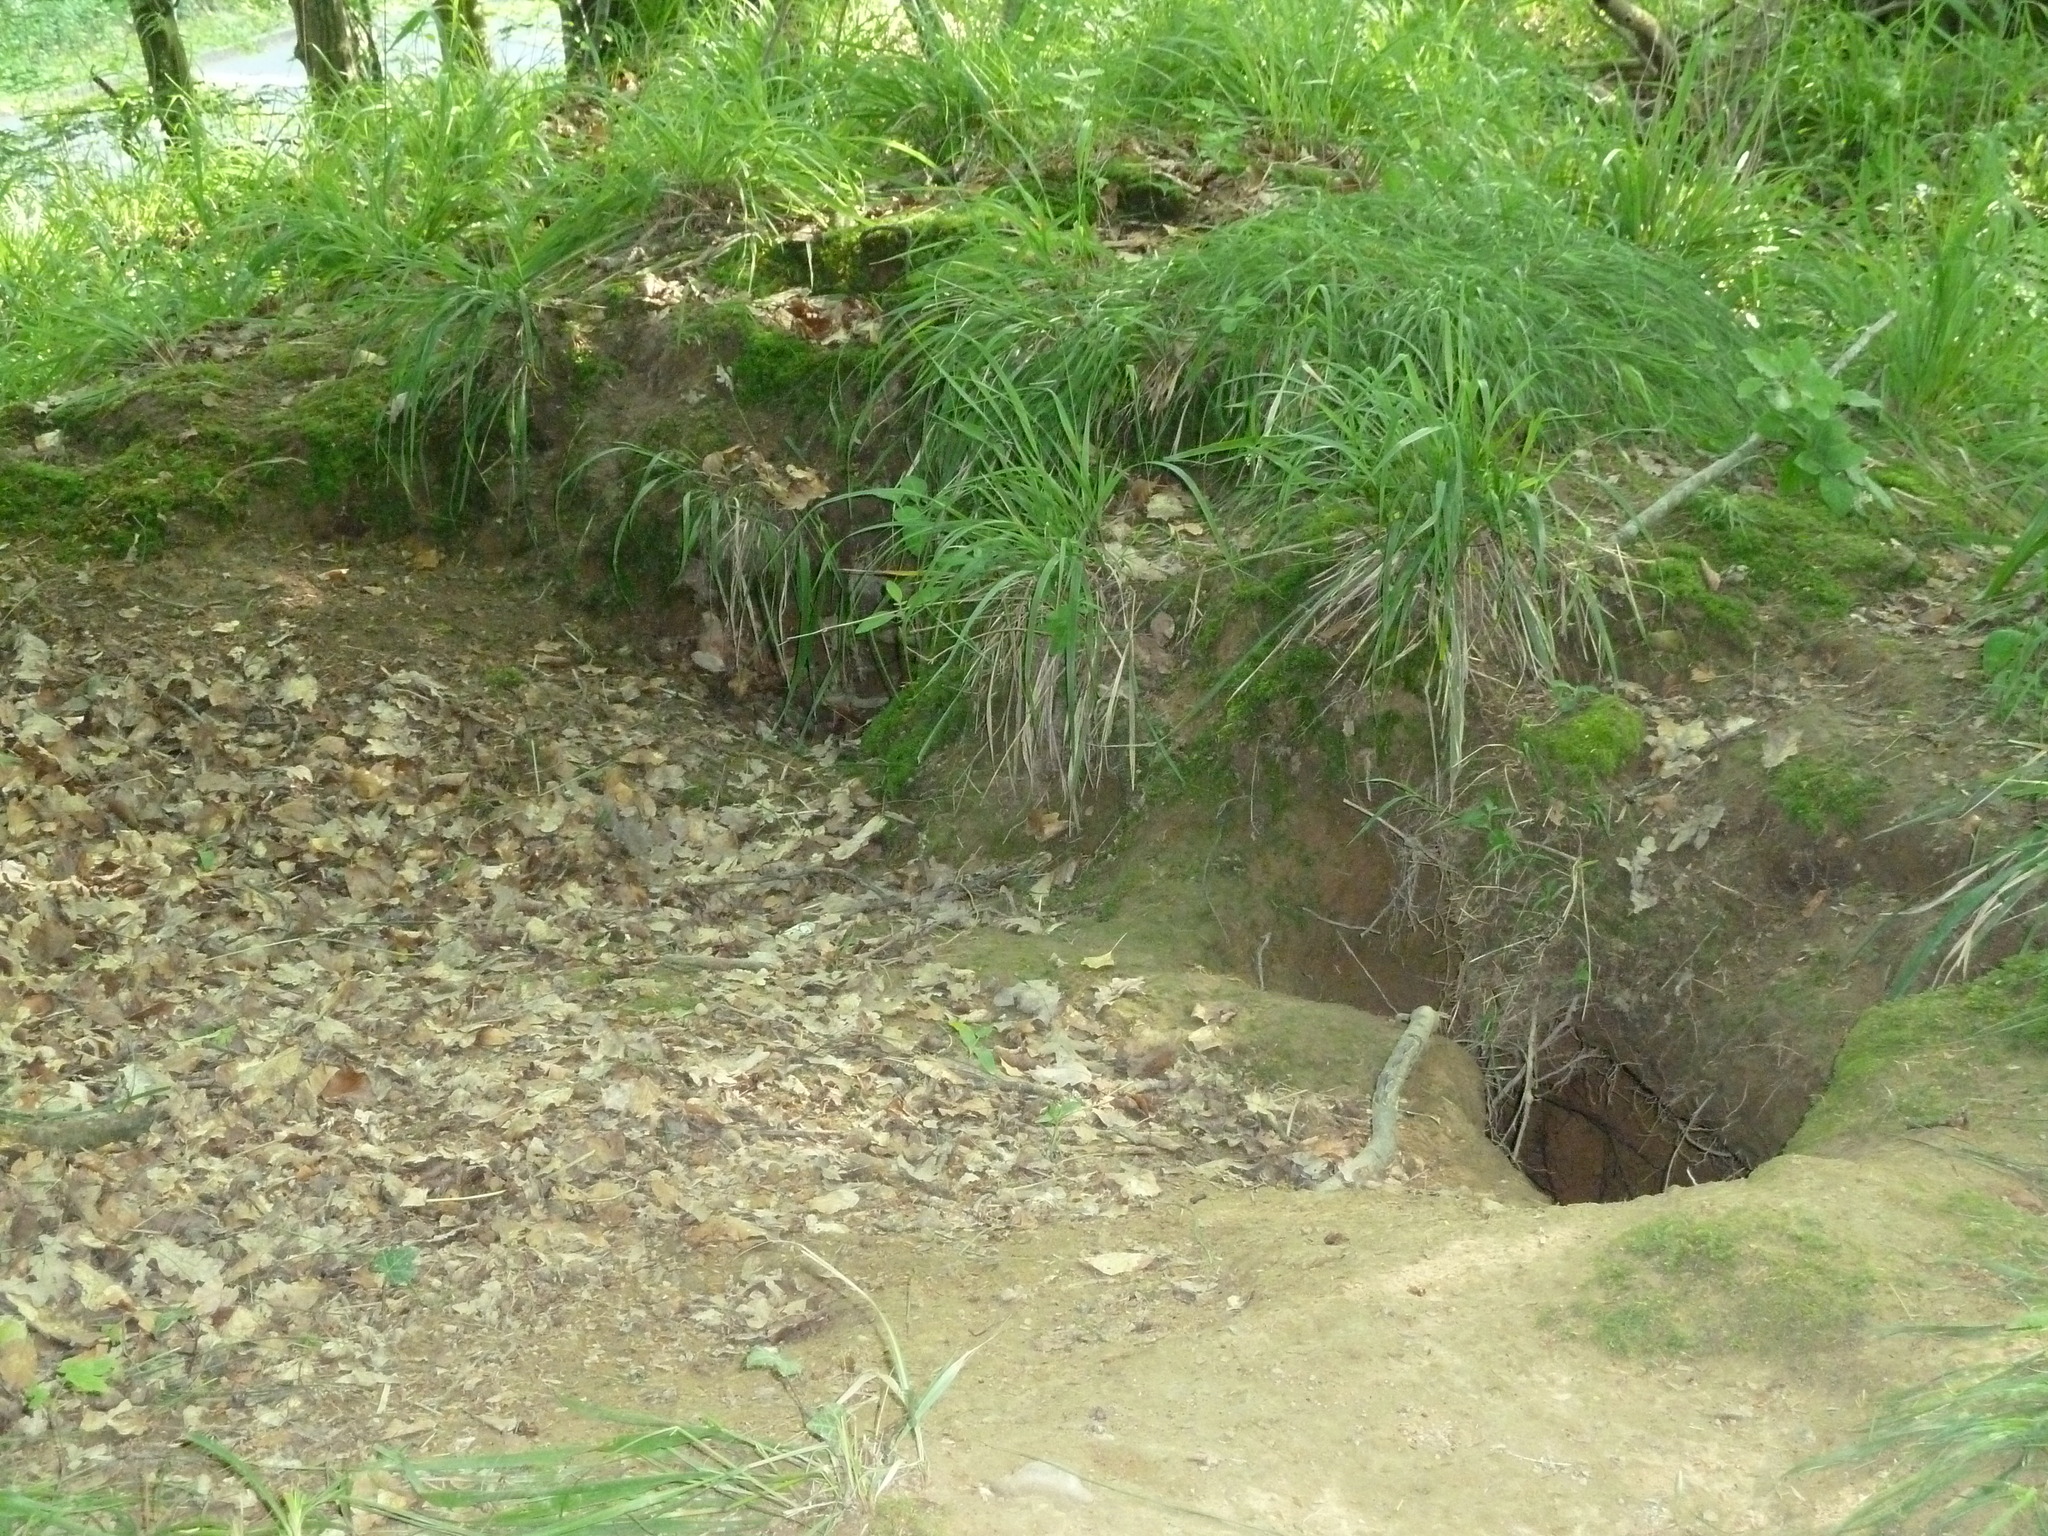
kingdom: Animalia
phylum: Chordata
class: Mammalia
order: Carnivora
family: Canidae
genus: Vulpes
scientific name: Vulpes vulpes
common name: Red fox
